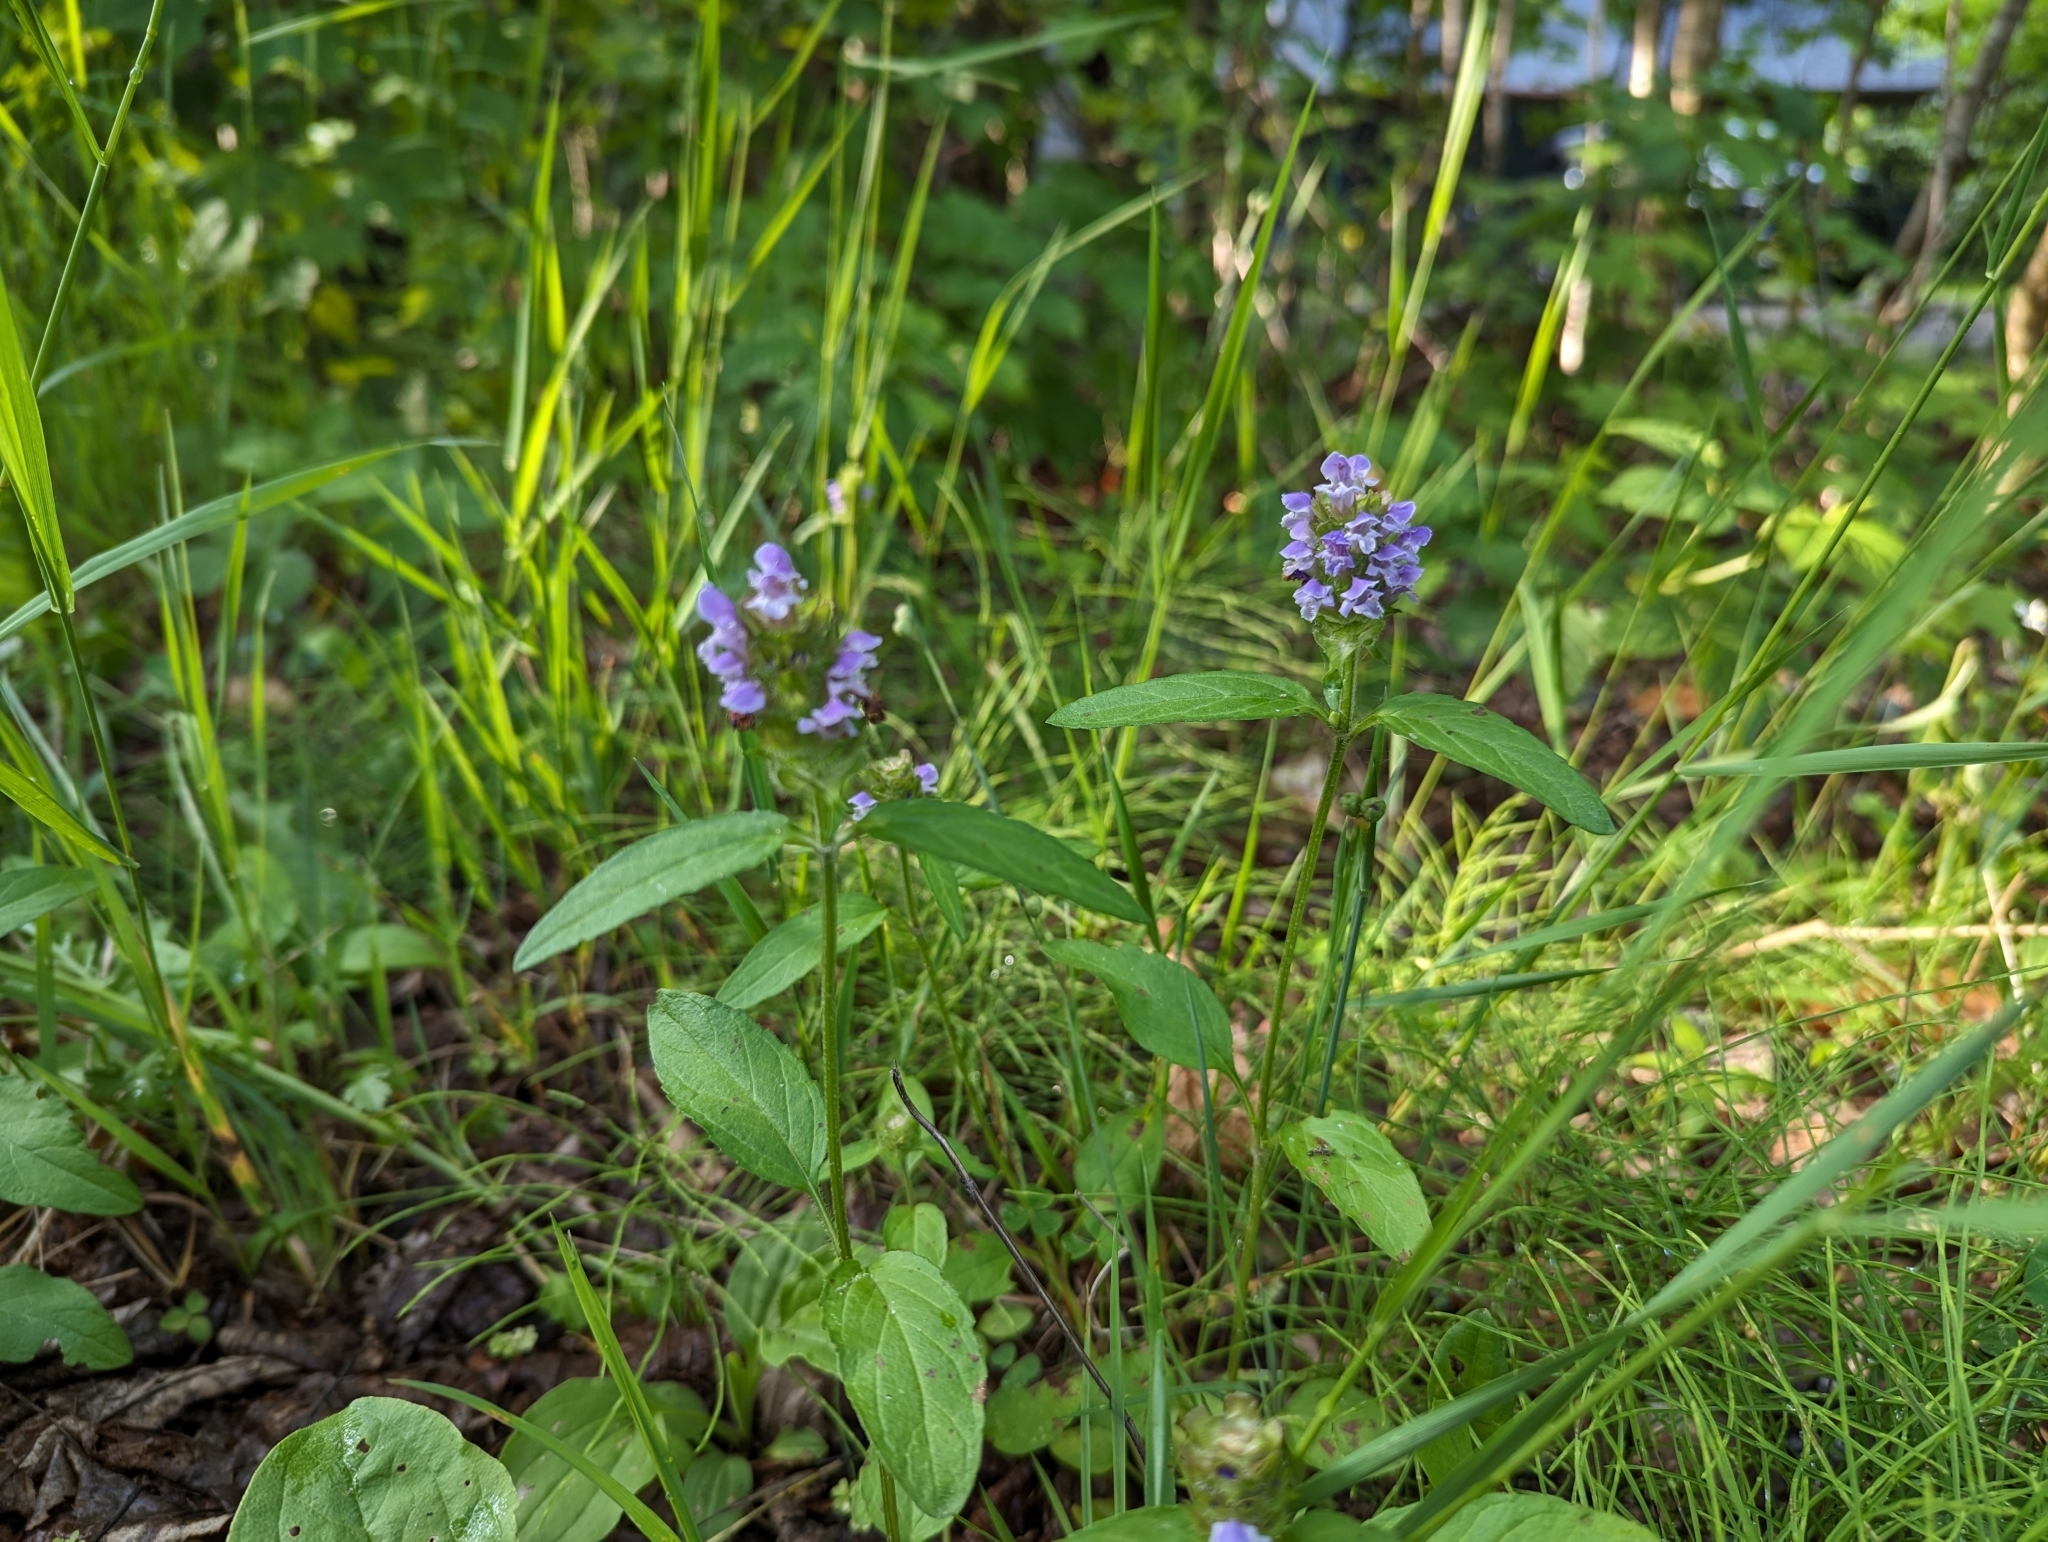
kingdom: Plantae
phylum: Tracheophyta
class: Magnoliopsida
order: Lamiales
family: Lamiaceae
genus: Prunella
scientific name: Prunella vulgaris
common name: Heal-all
